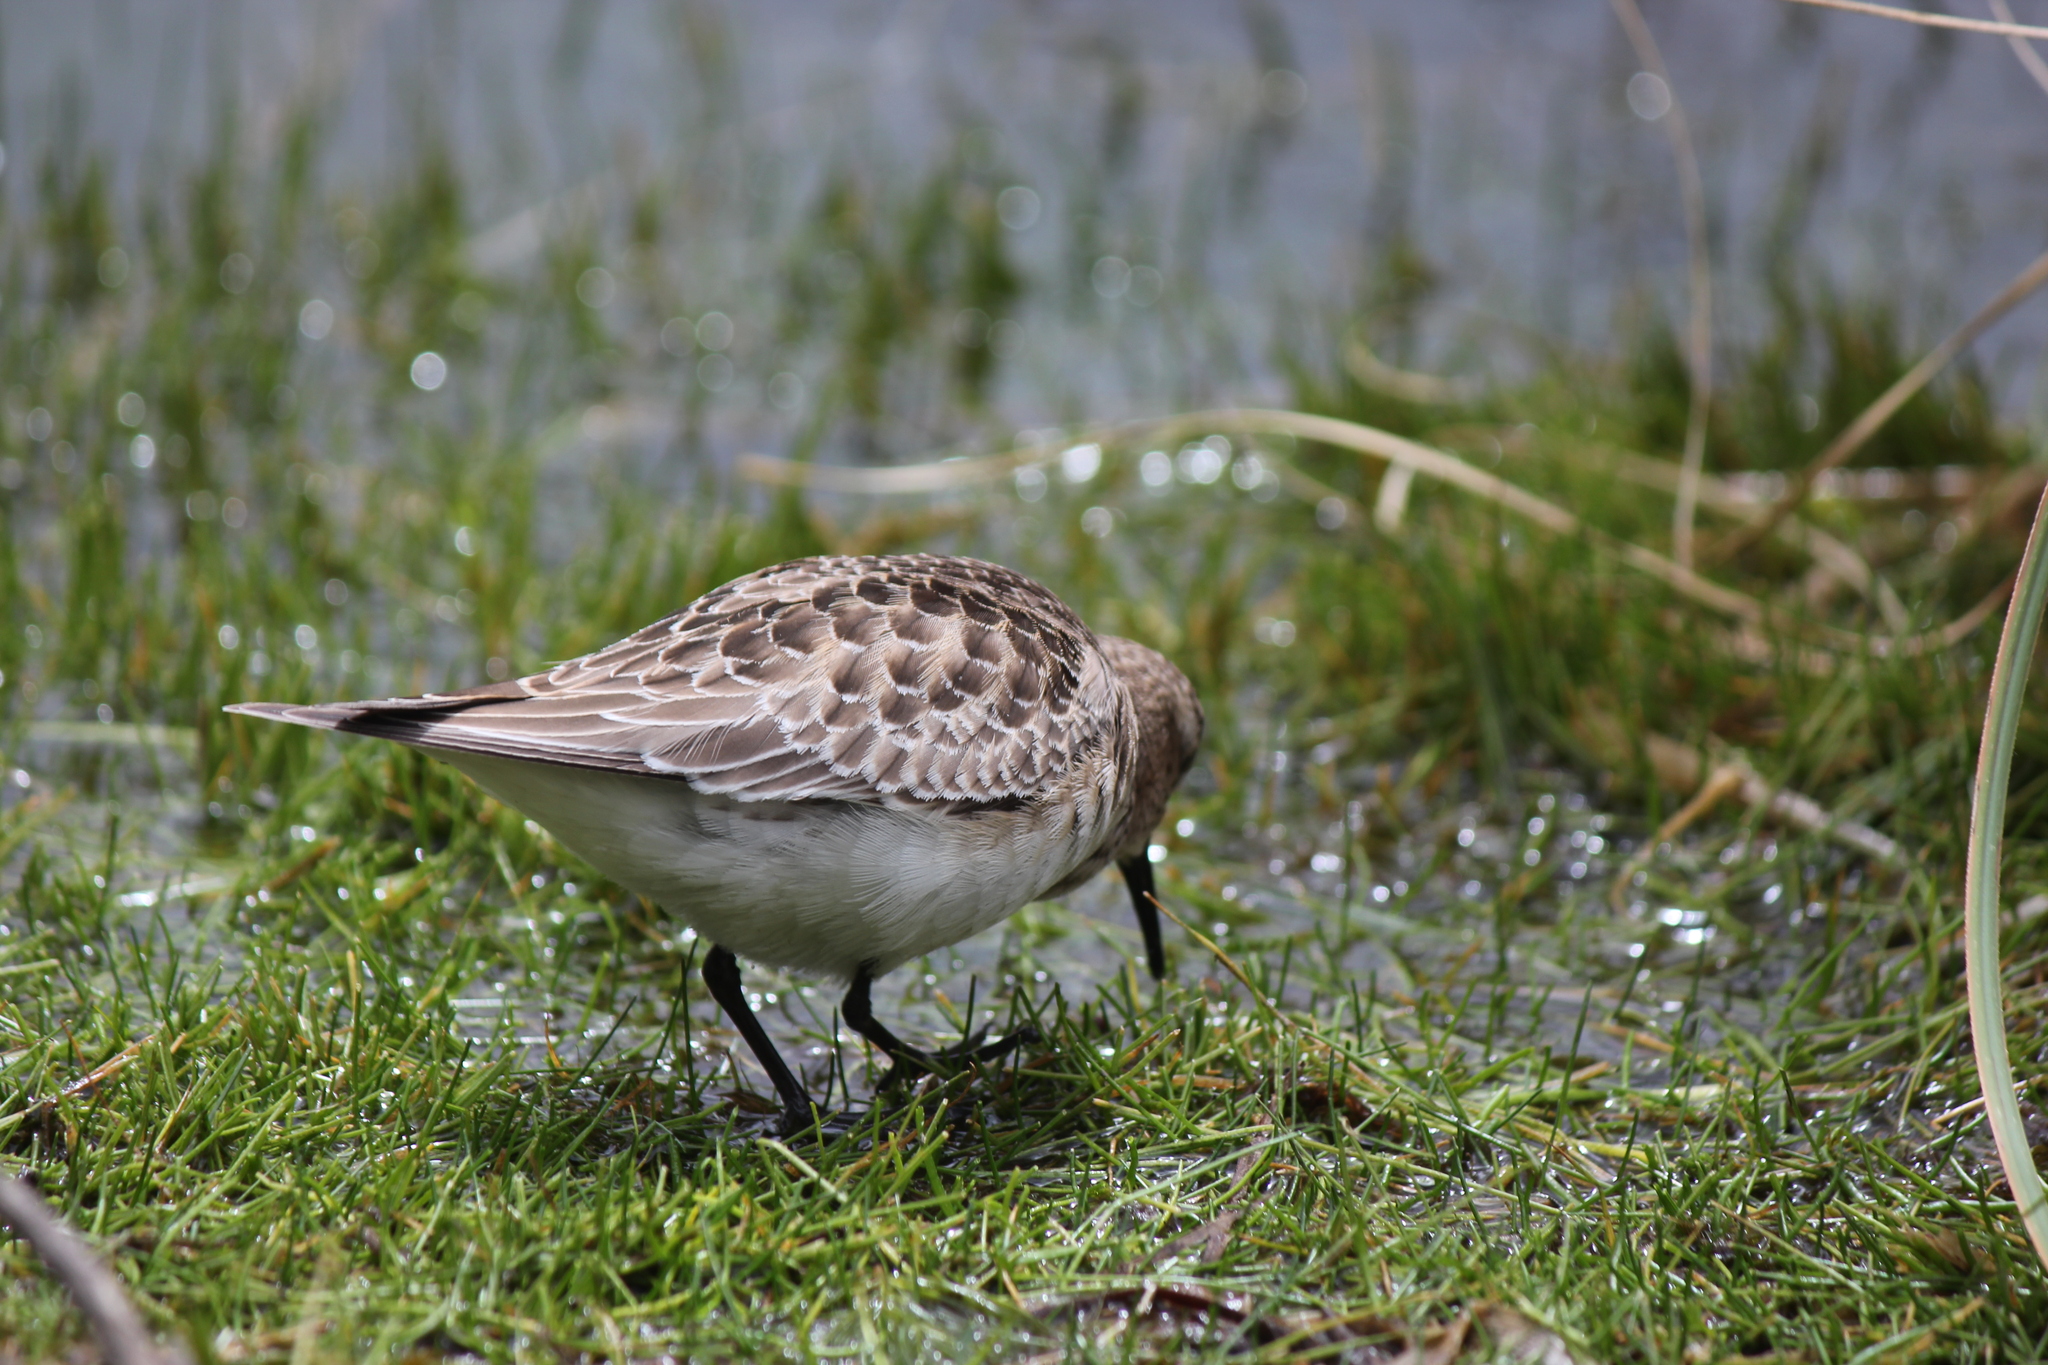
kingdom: Animalia
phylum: Chordata
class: Aves
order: Charadriiformes
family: Scolopacidae
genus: Calidris
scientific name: Calidris bairdii
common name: Baird's sandpiper
